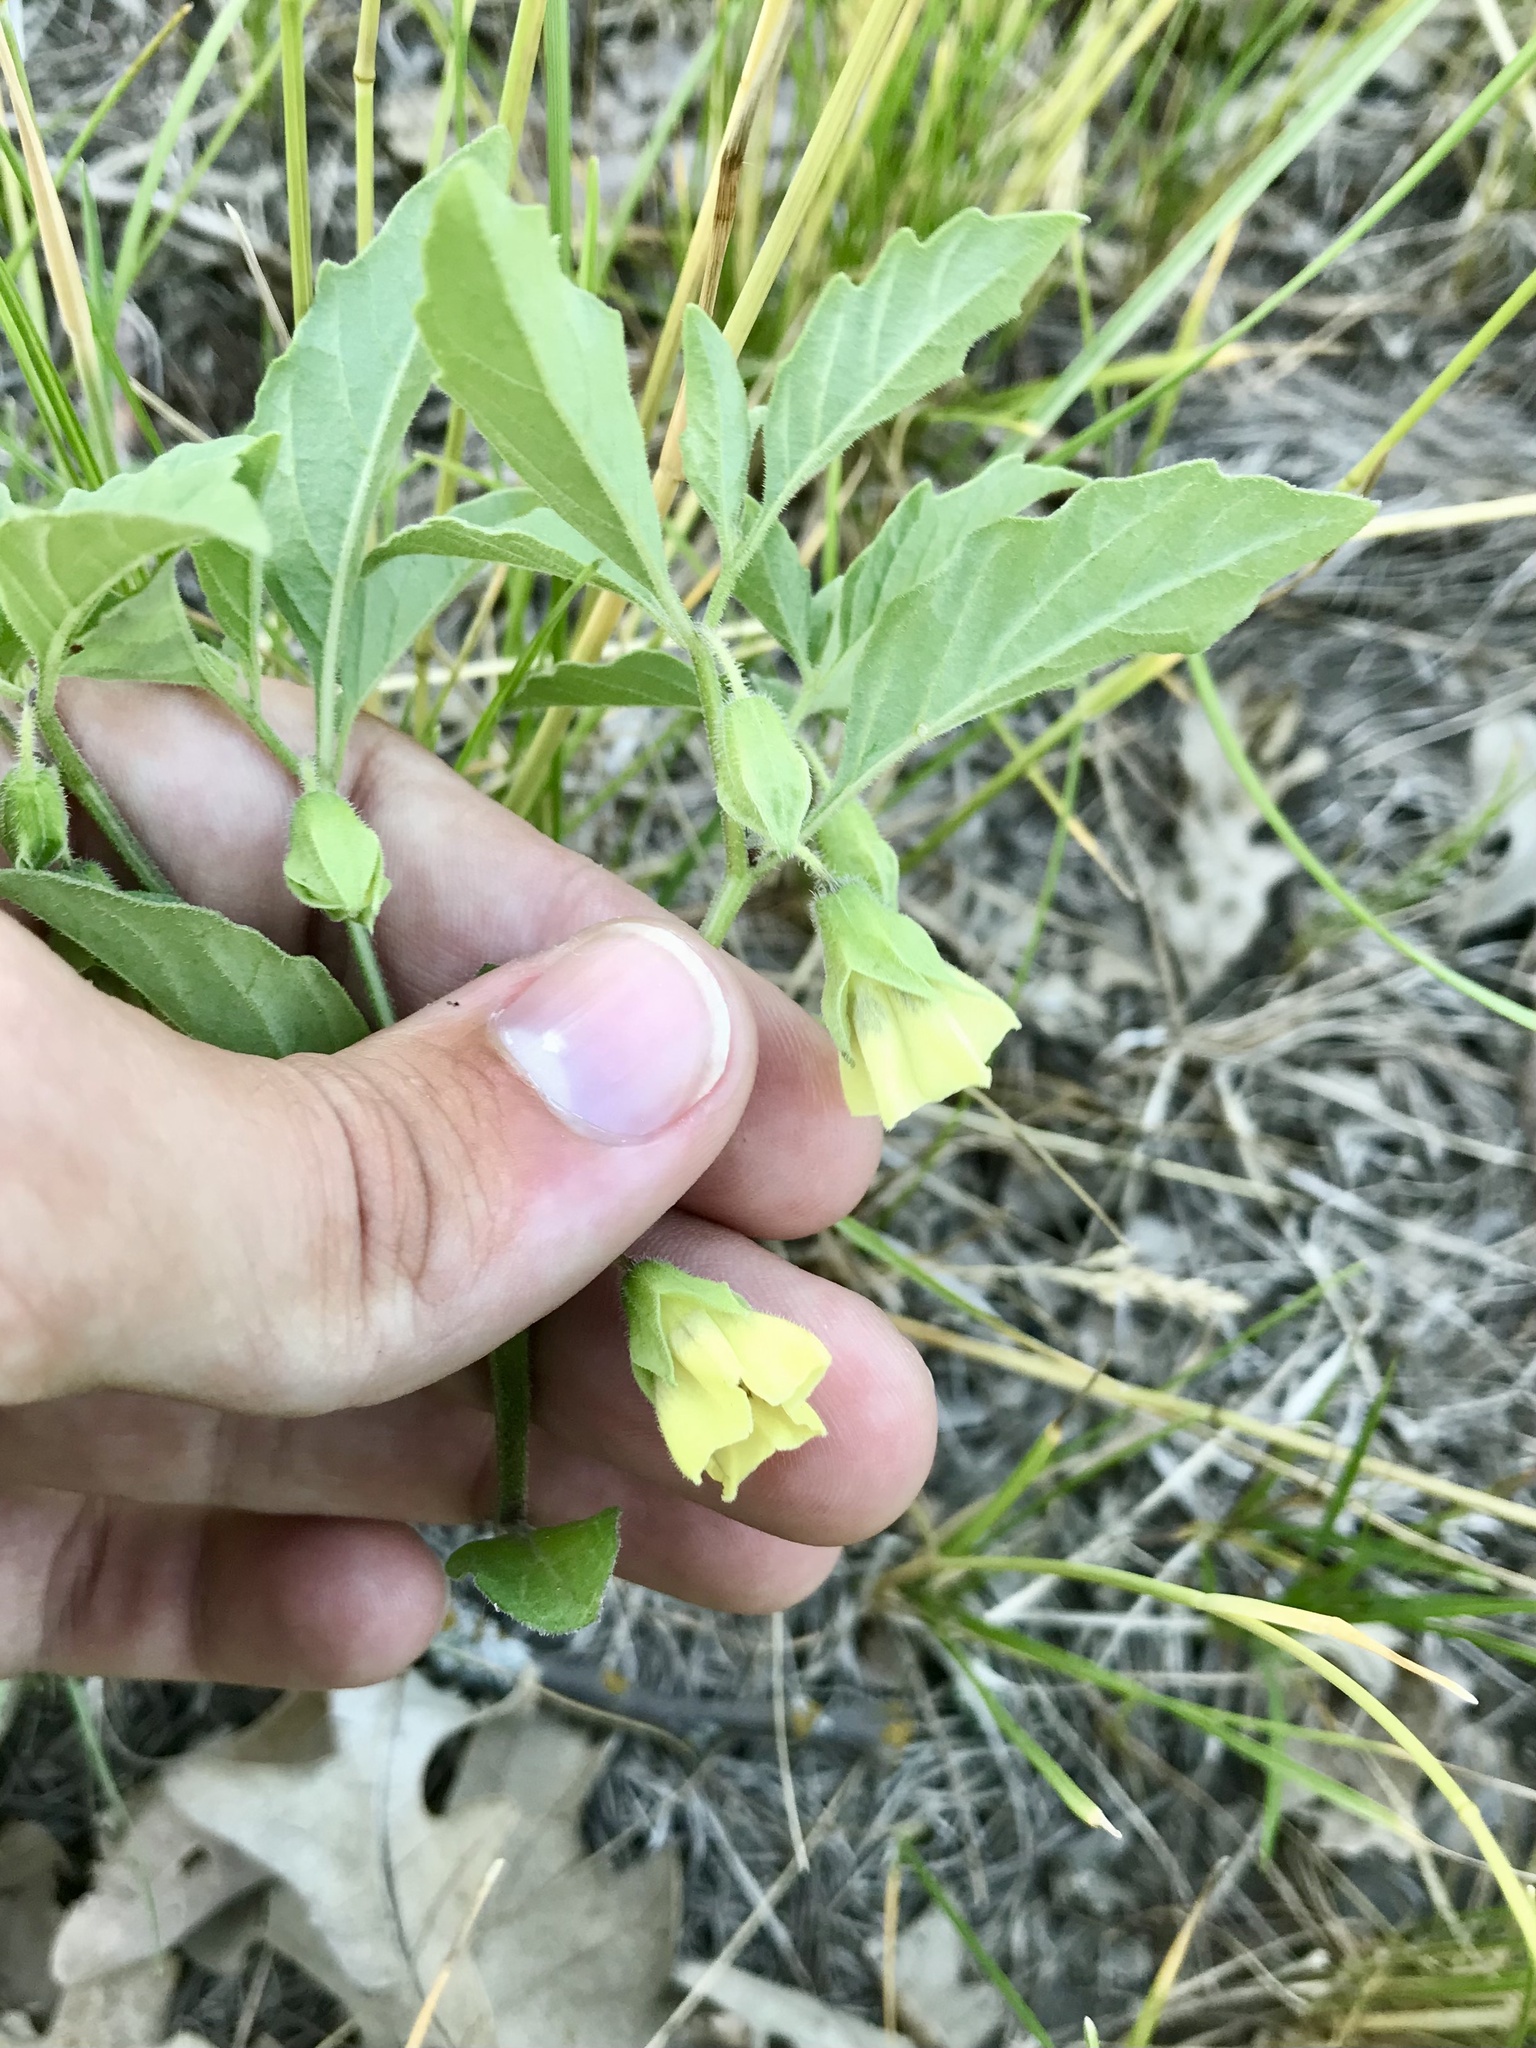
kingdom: Plantae
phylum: Tracheophyta
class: Magnoliopsida
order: Solanales
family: Solanaceae
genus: Physalis
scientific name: Physalis virginiana
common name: Virginia ground-cherry
